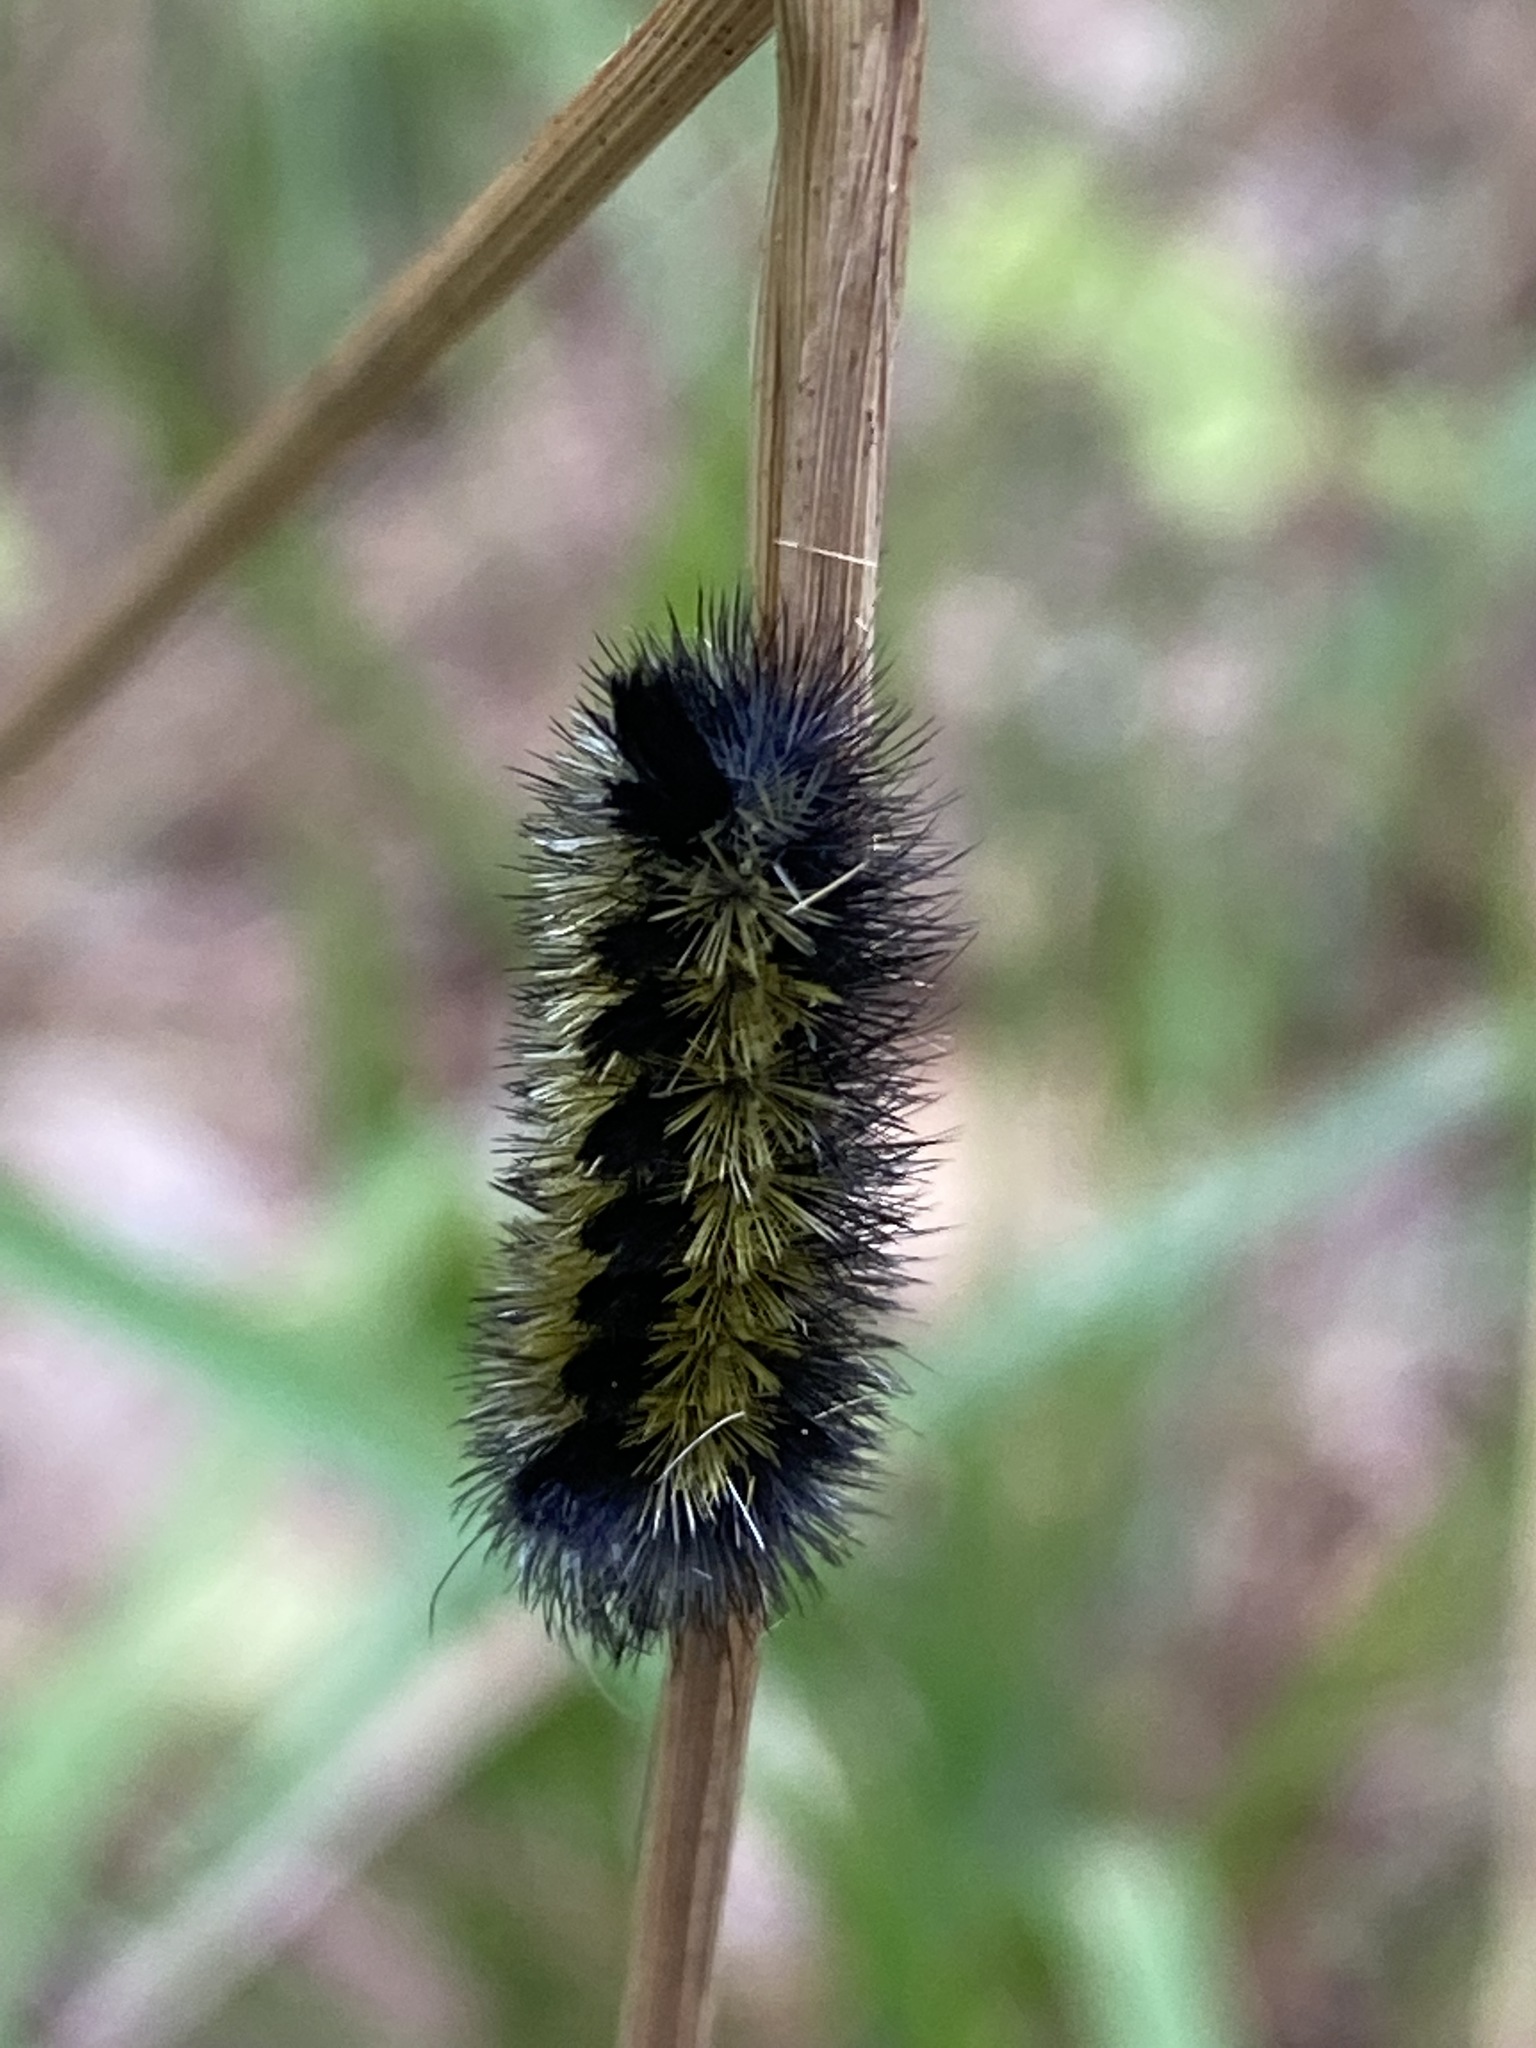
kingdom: Animalia
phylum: Arthropoda
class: Insecta
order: Lepidoptera
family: Erebidae
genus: Ctenucha
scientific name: Ctenucha virginica
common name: Virginia ctenucha moth
